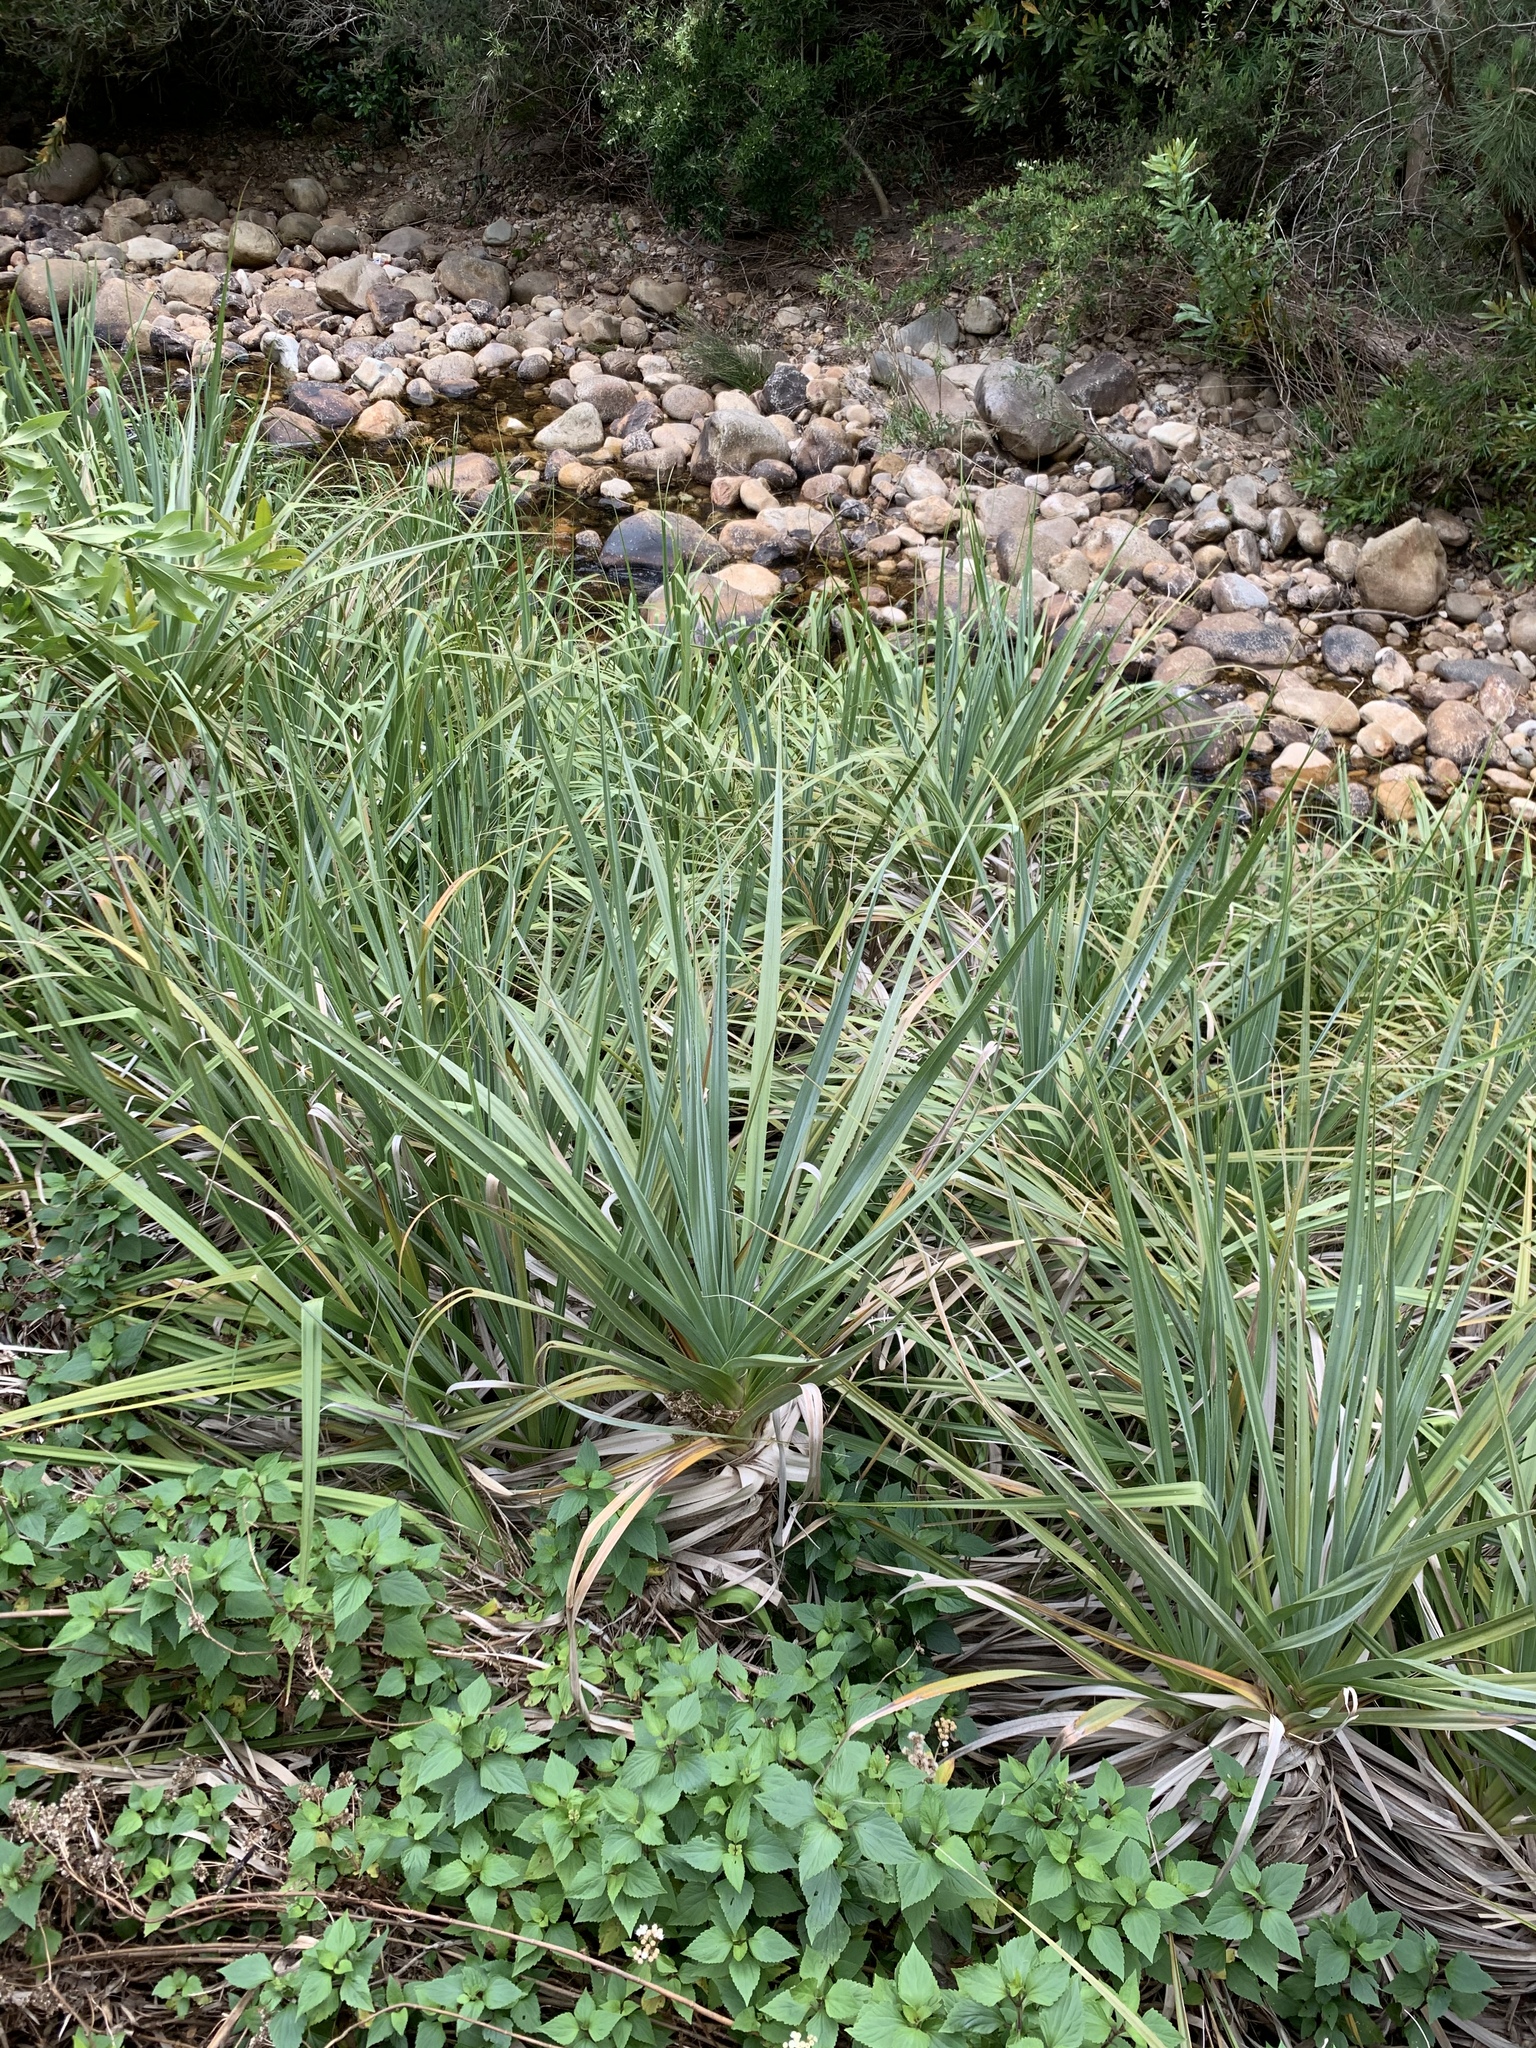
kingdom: Plantae
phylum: Tracheophyta
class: Liliopsida
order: Poales
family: Thurniaceae
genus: Prionium
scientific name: Prionium serratum
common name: Palmiet
